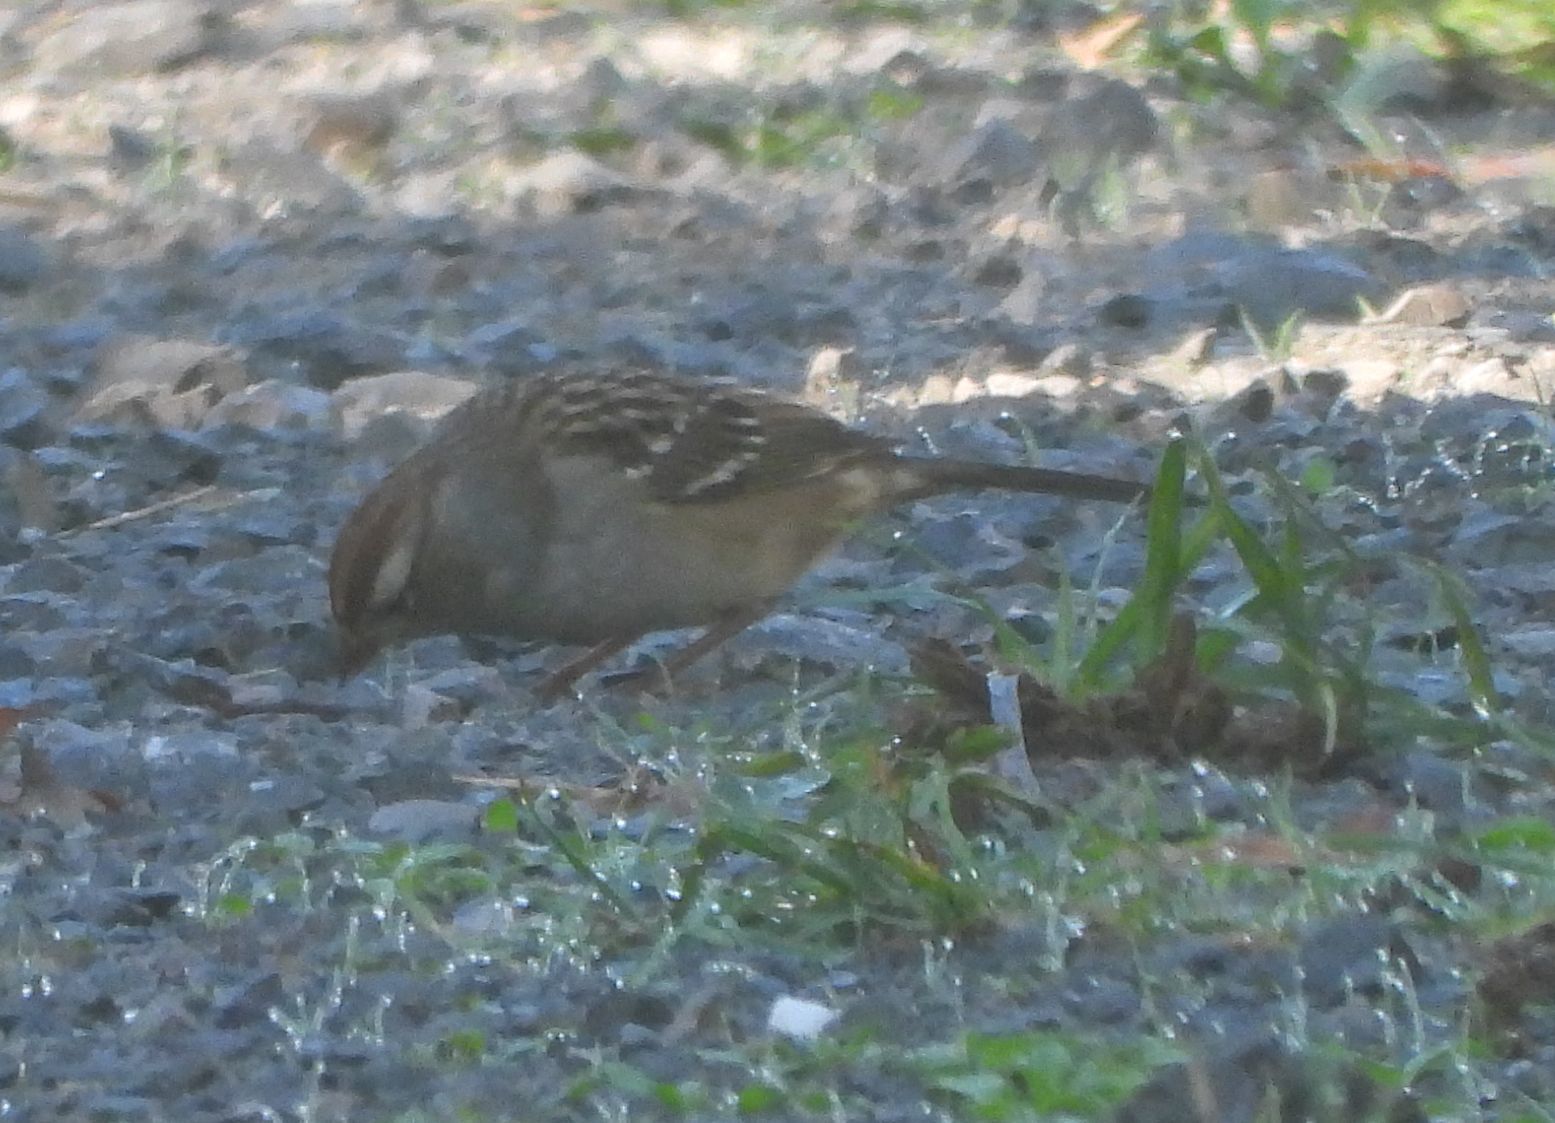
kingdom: Animalia
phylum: Chordata
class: Aves
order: Passeriformes
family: Passerellidae
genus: Zonotrichia
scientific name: Zonotrichia leucophrys
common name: White-crowned sparrow
